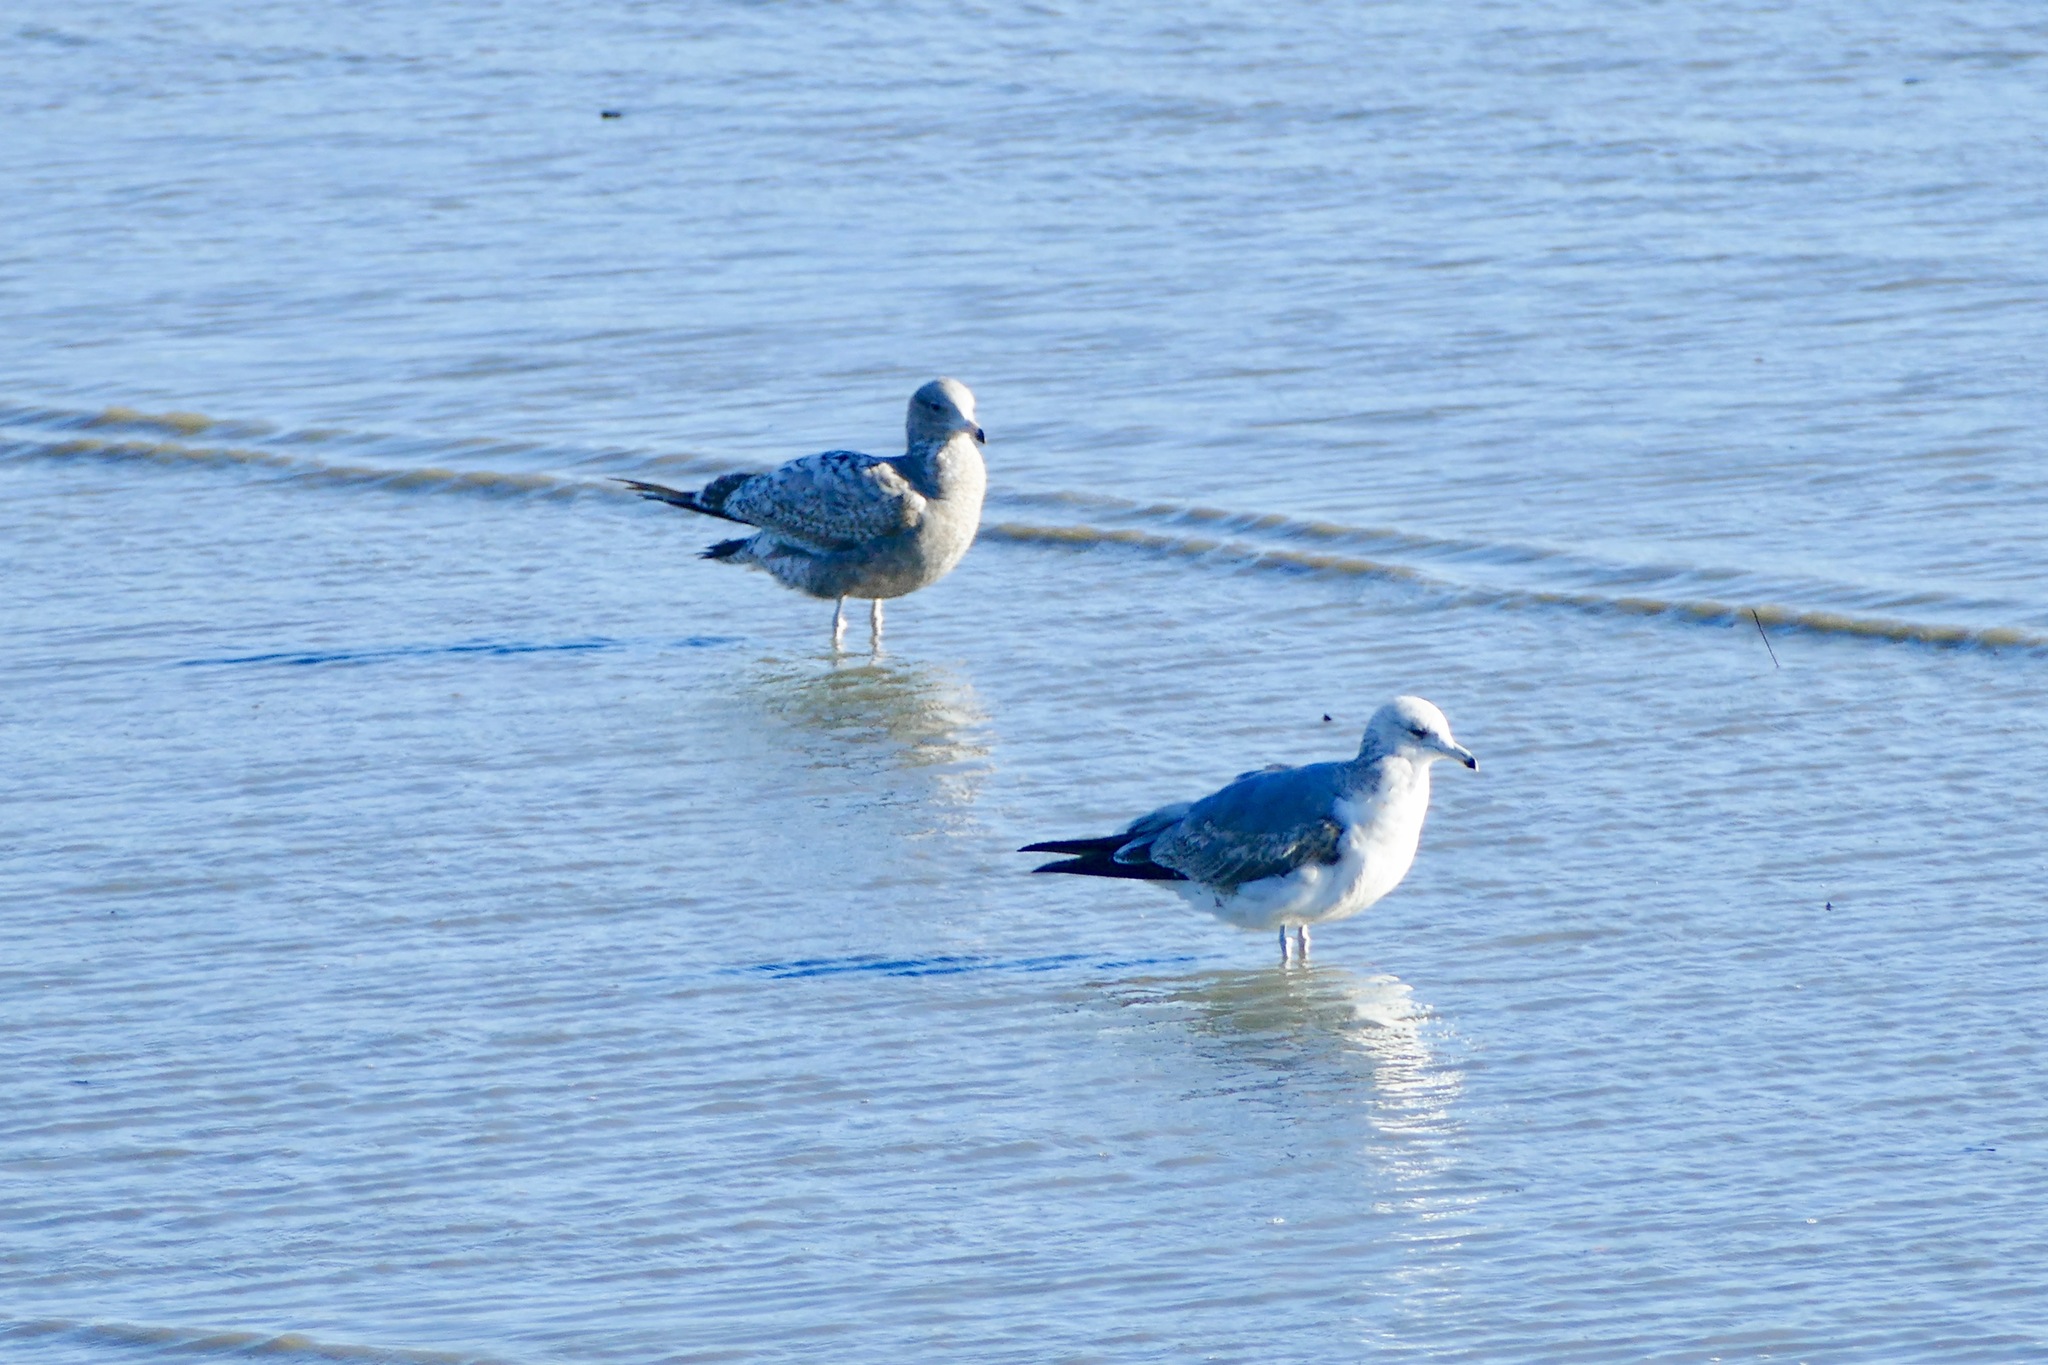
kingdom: Animalia
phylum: Chordata
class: Aves
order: Charadriiformes
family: Laridae
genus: Larus
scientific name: Larus californicus
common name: California gull
